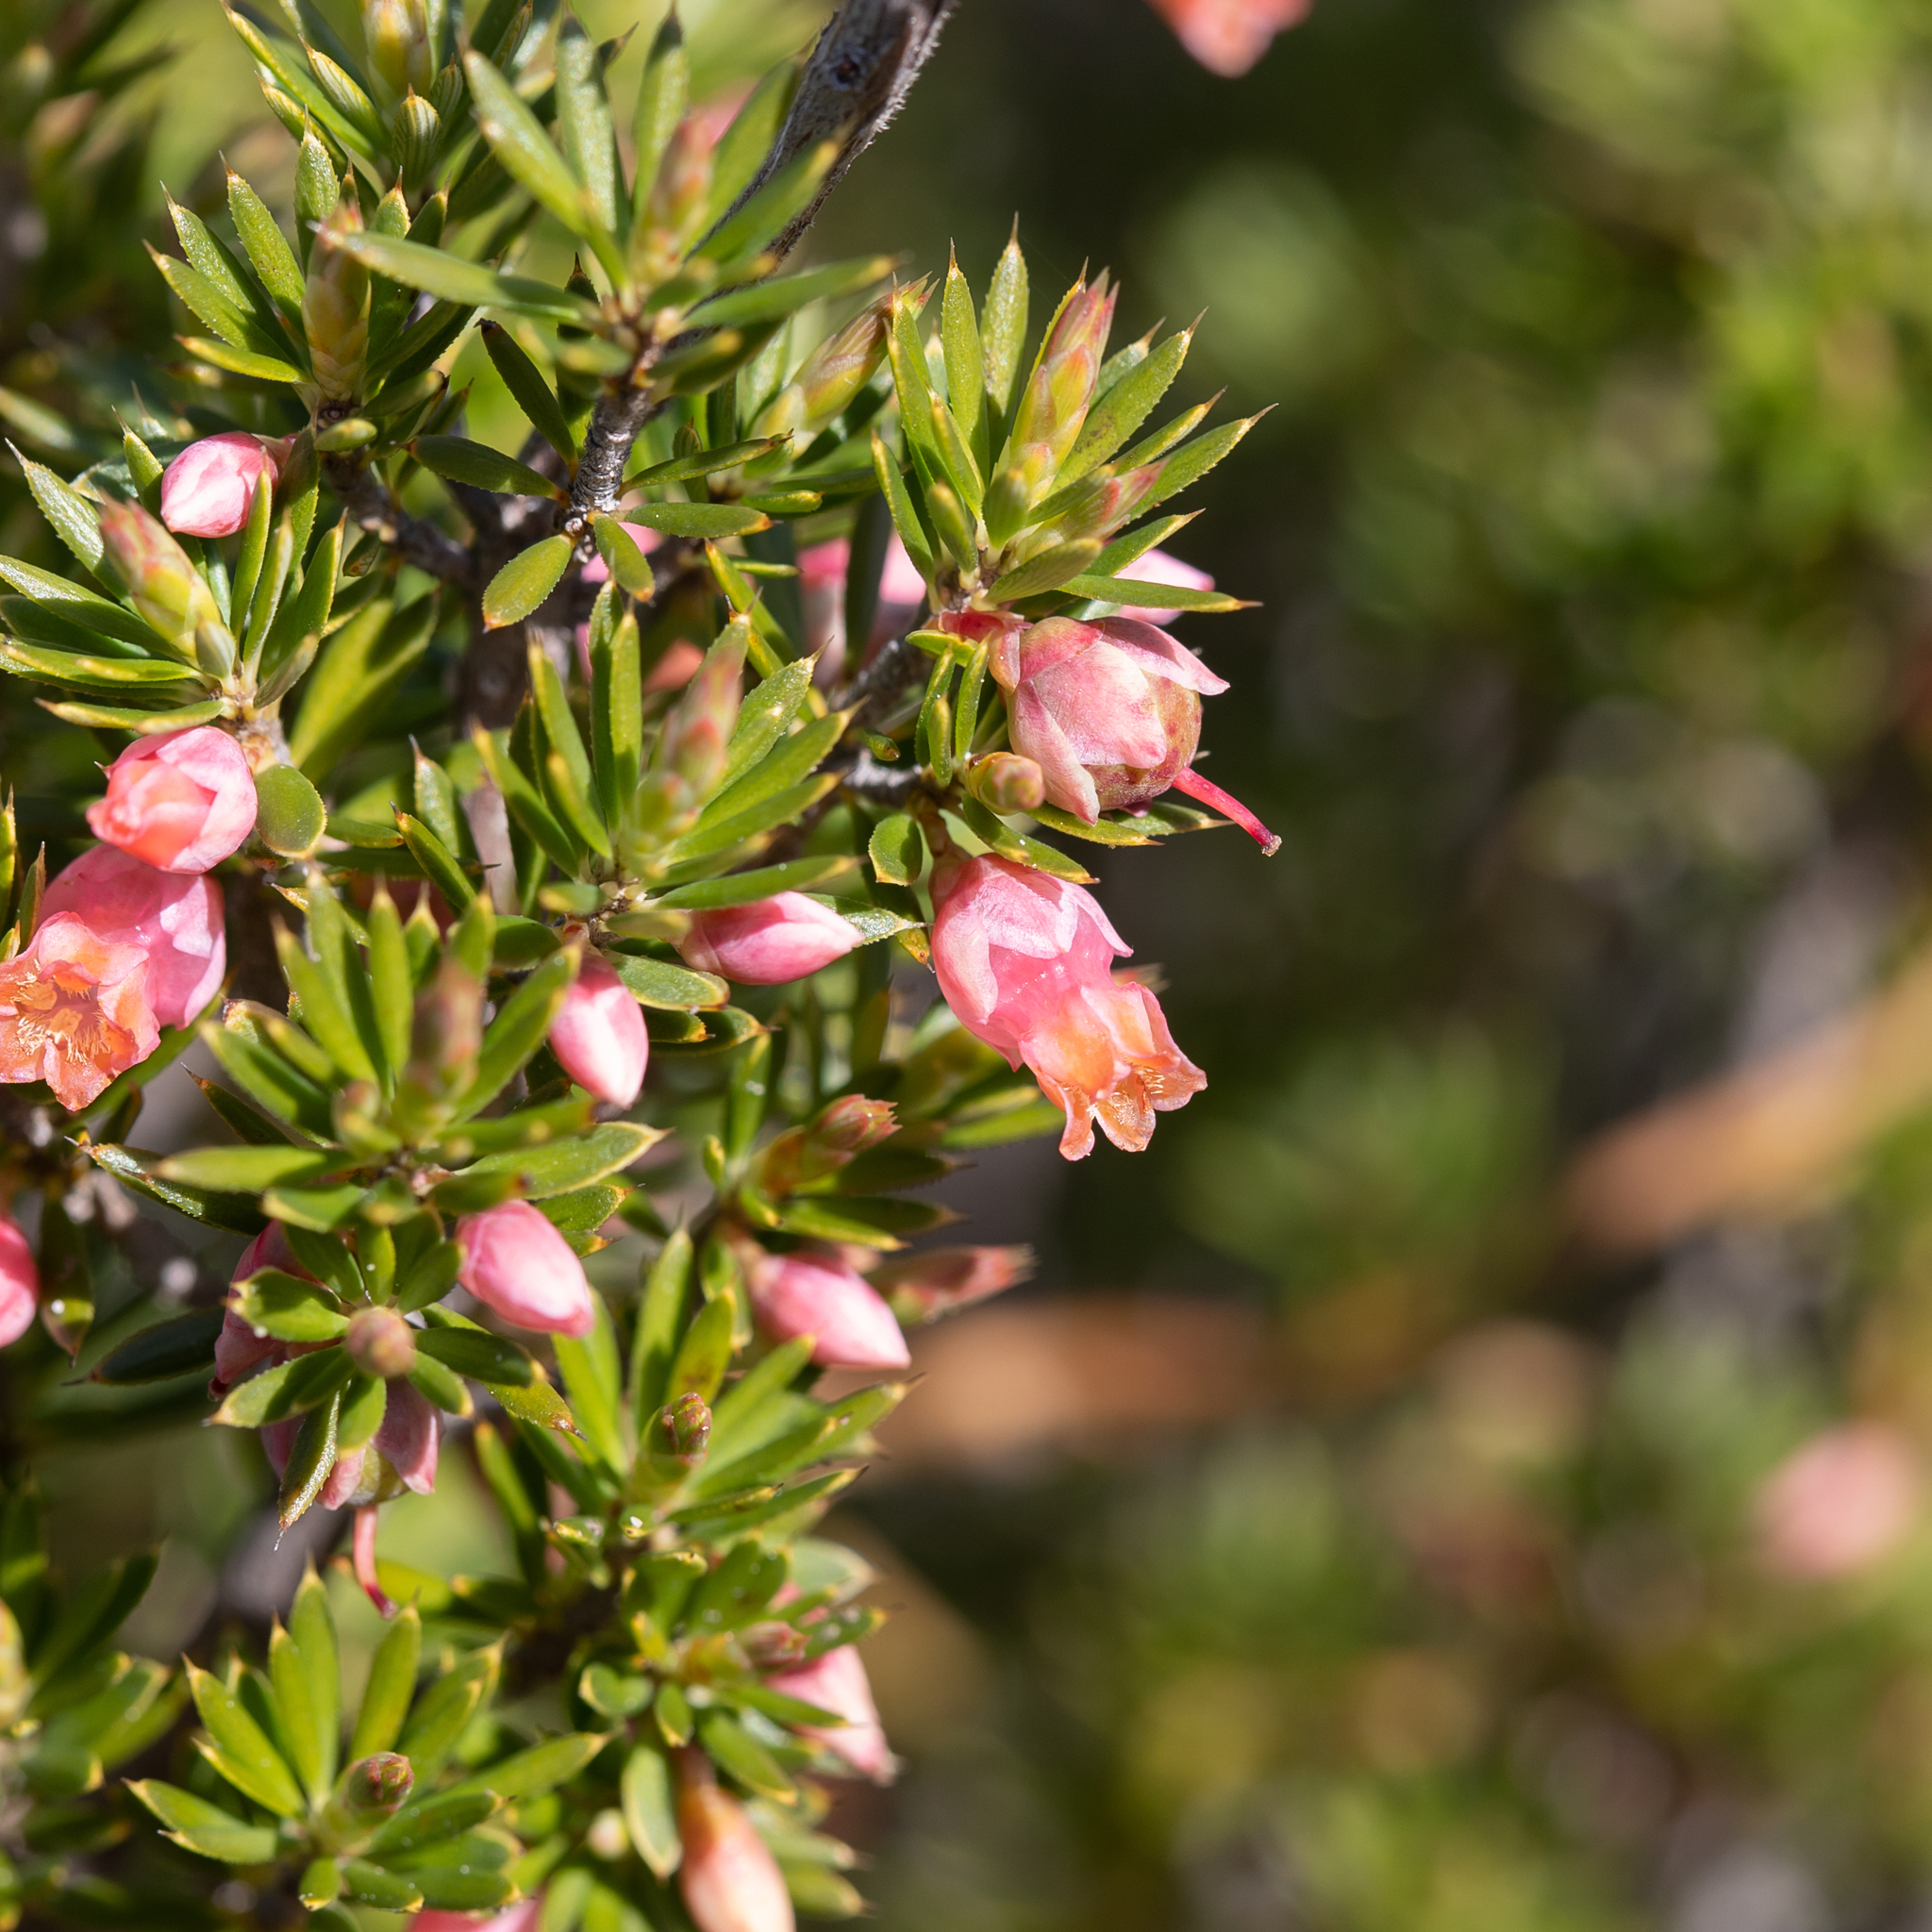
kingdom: Plantae
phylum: Tracheophyta
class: Magnoliopsida
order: Ericales
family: Ericaceae
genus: Brachyloma
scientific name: Brachyloma ericoides
